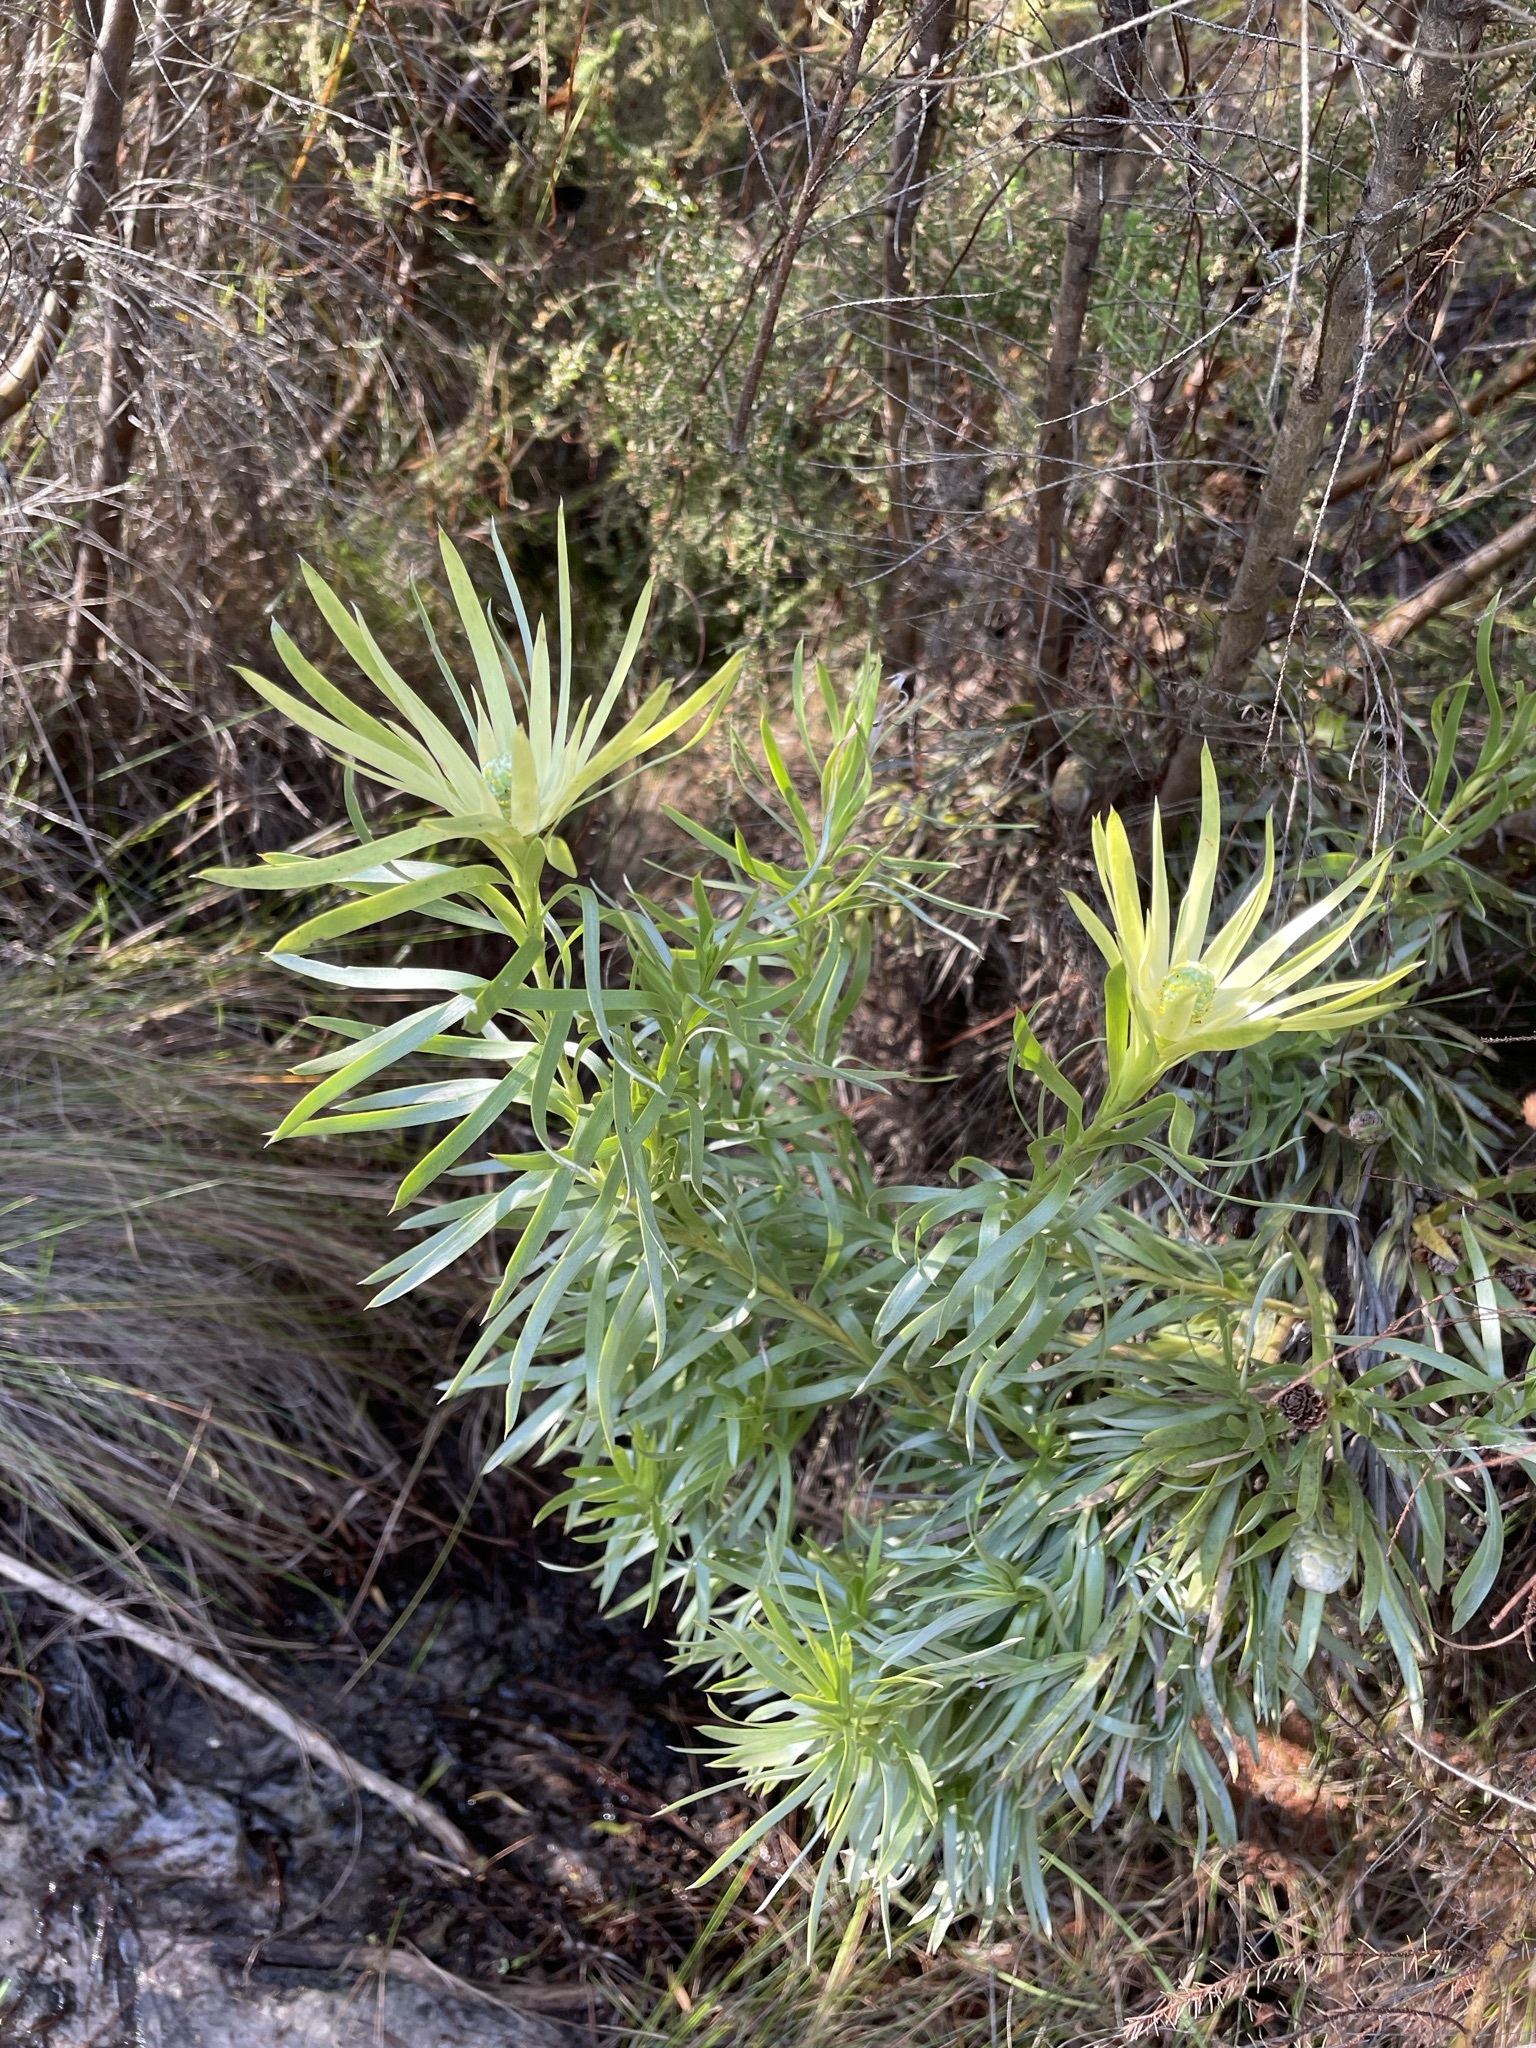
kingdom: Plantae
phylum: Tracheophyta
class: Magnoliopsida
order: Proteales
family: Proteaceae
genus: Leucadendron
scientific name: Leucadendron xanthoconus
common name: Sickle-leaf conebush
